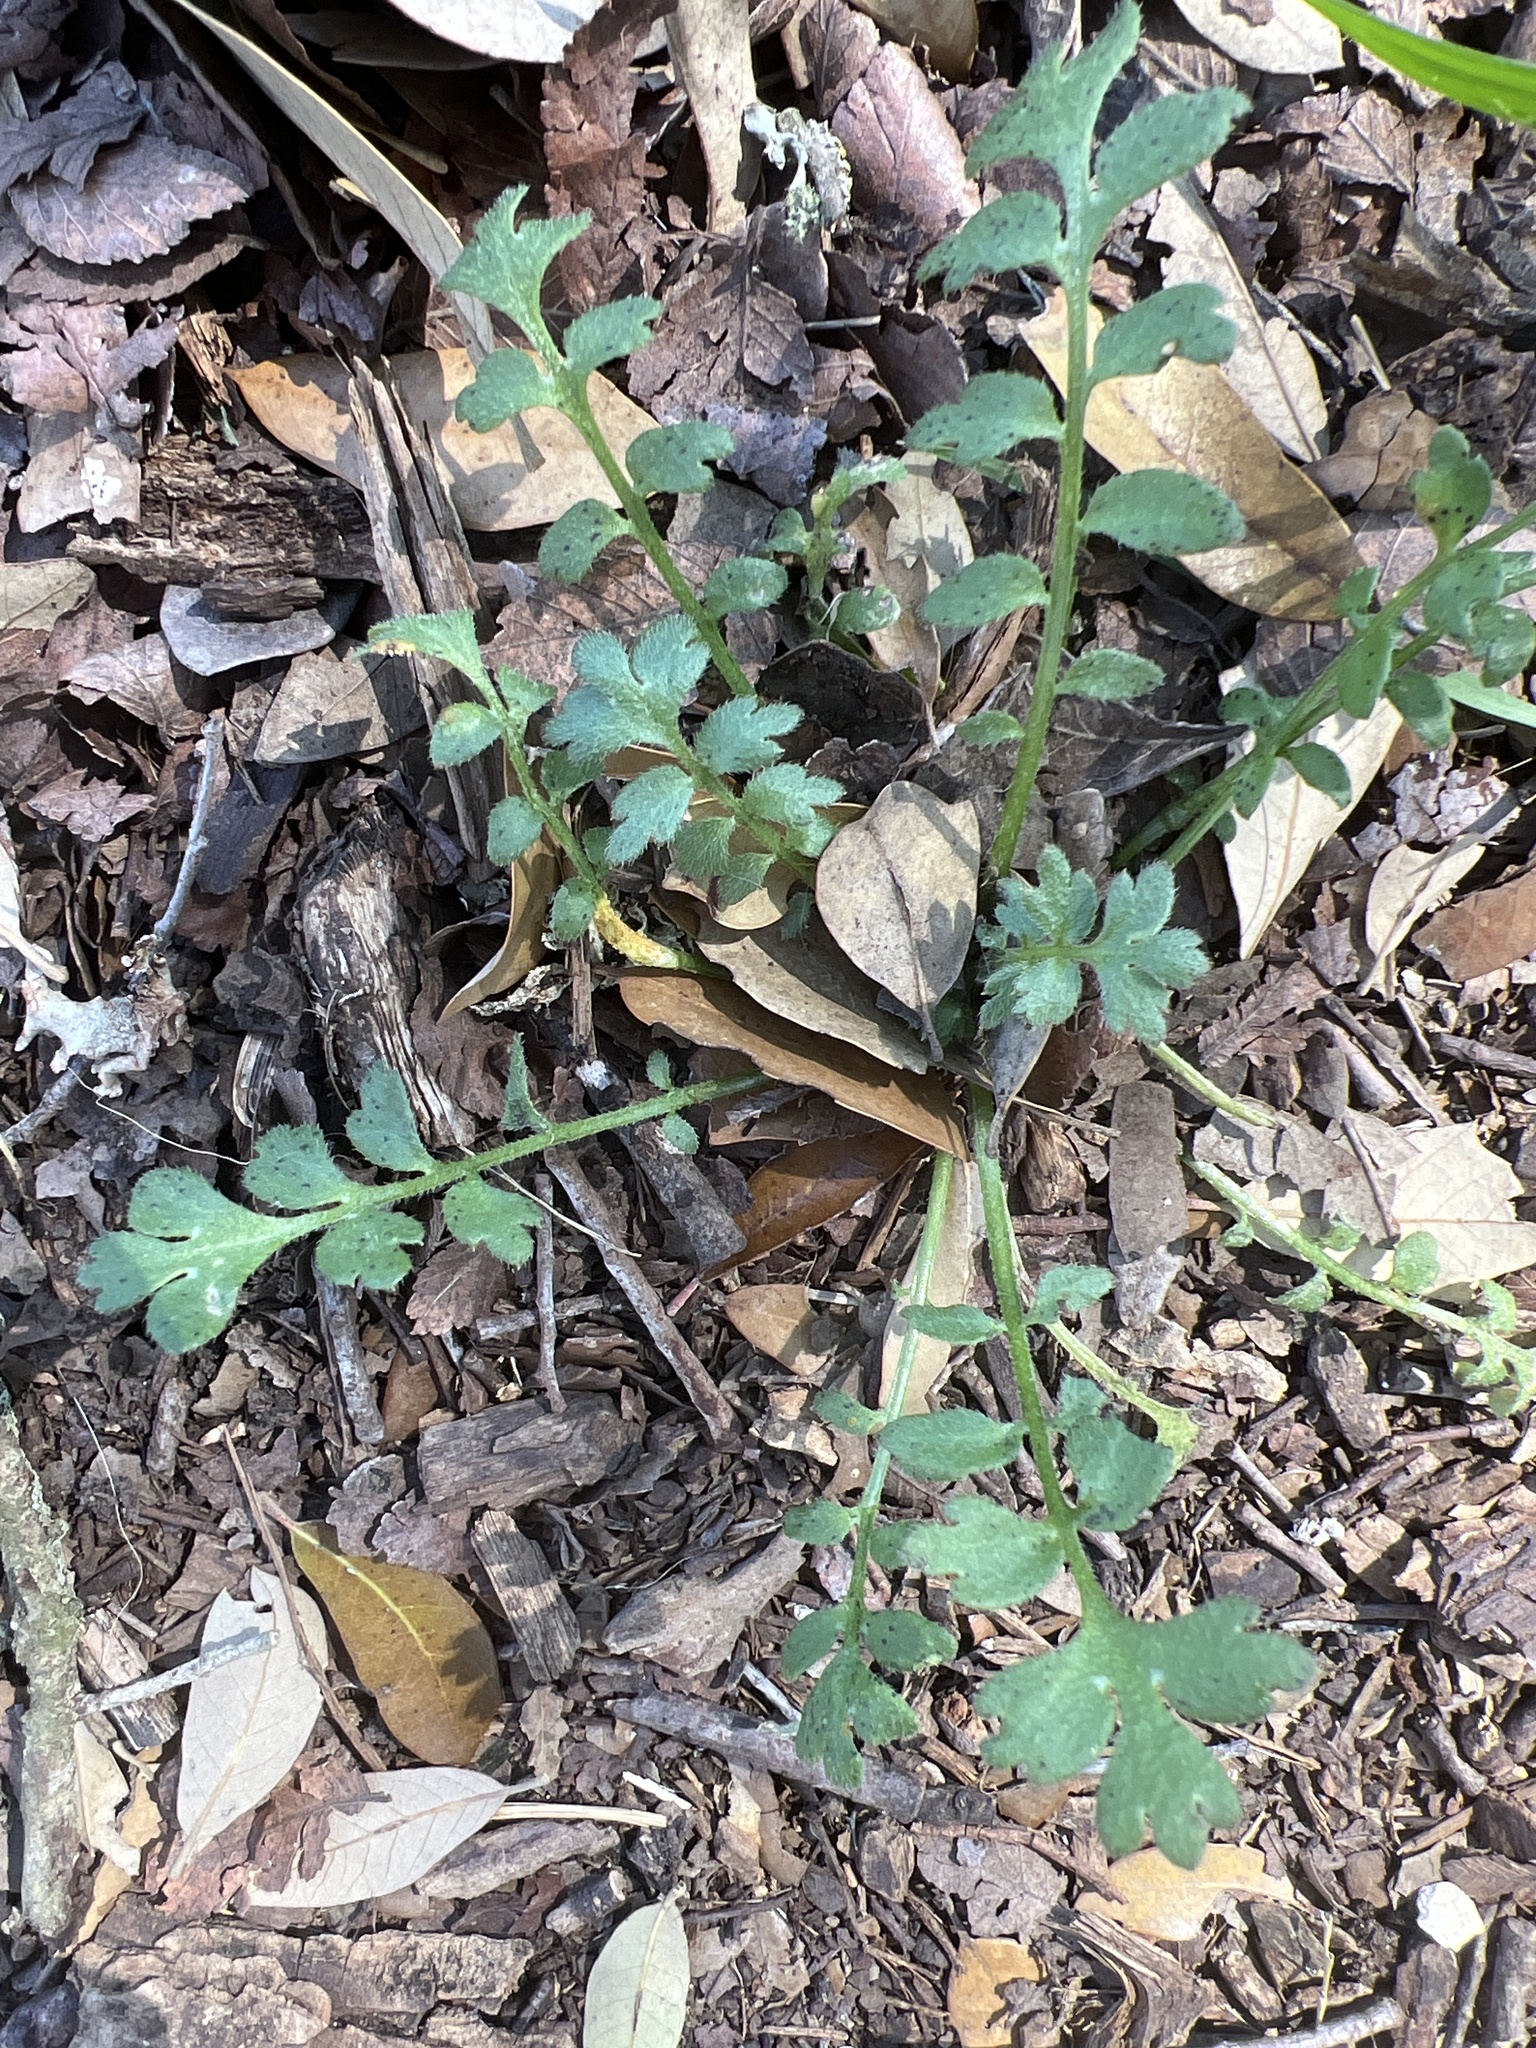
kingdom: Plantae
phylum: Tracheophyta
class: Magnoliopsida
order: Boraginales
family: Hydrophyllaceae
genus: Nemophila
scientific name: Nemophila phacelioides
